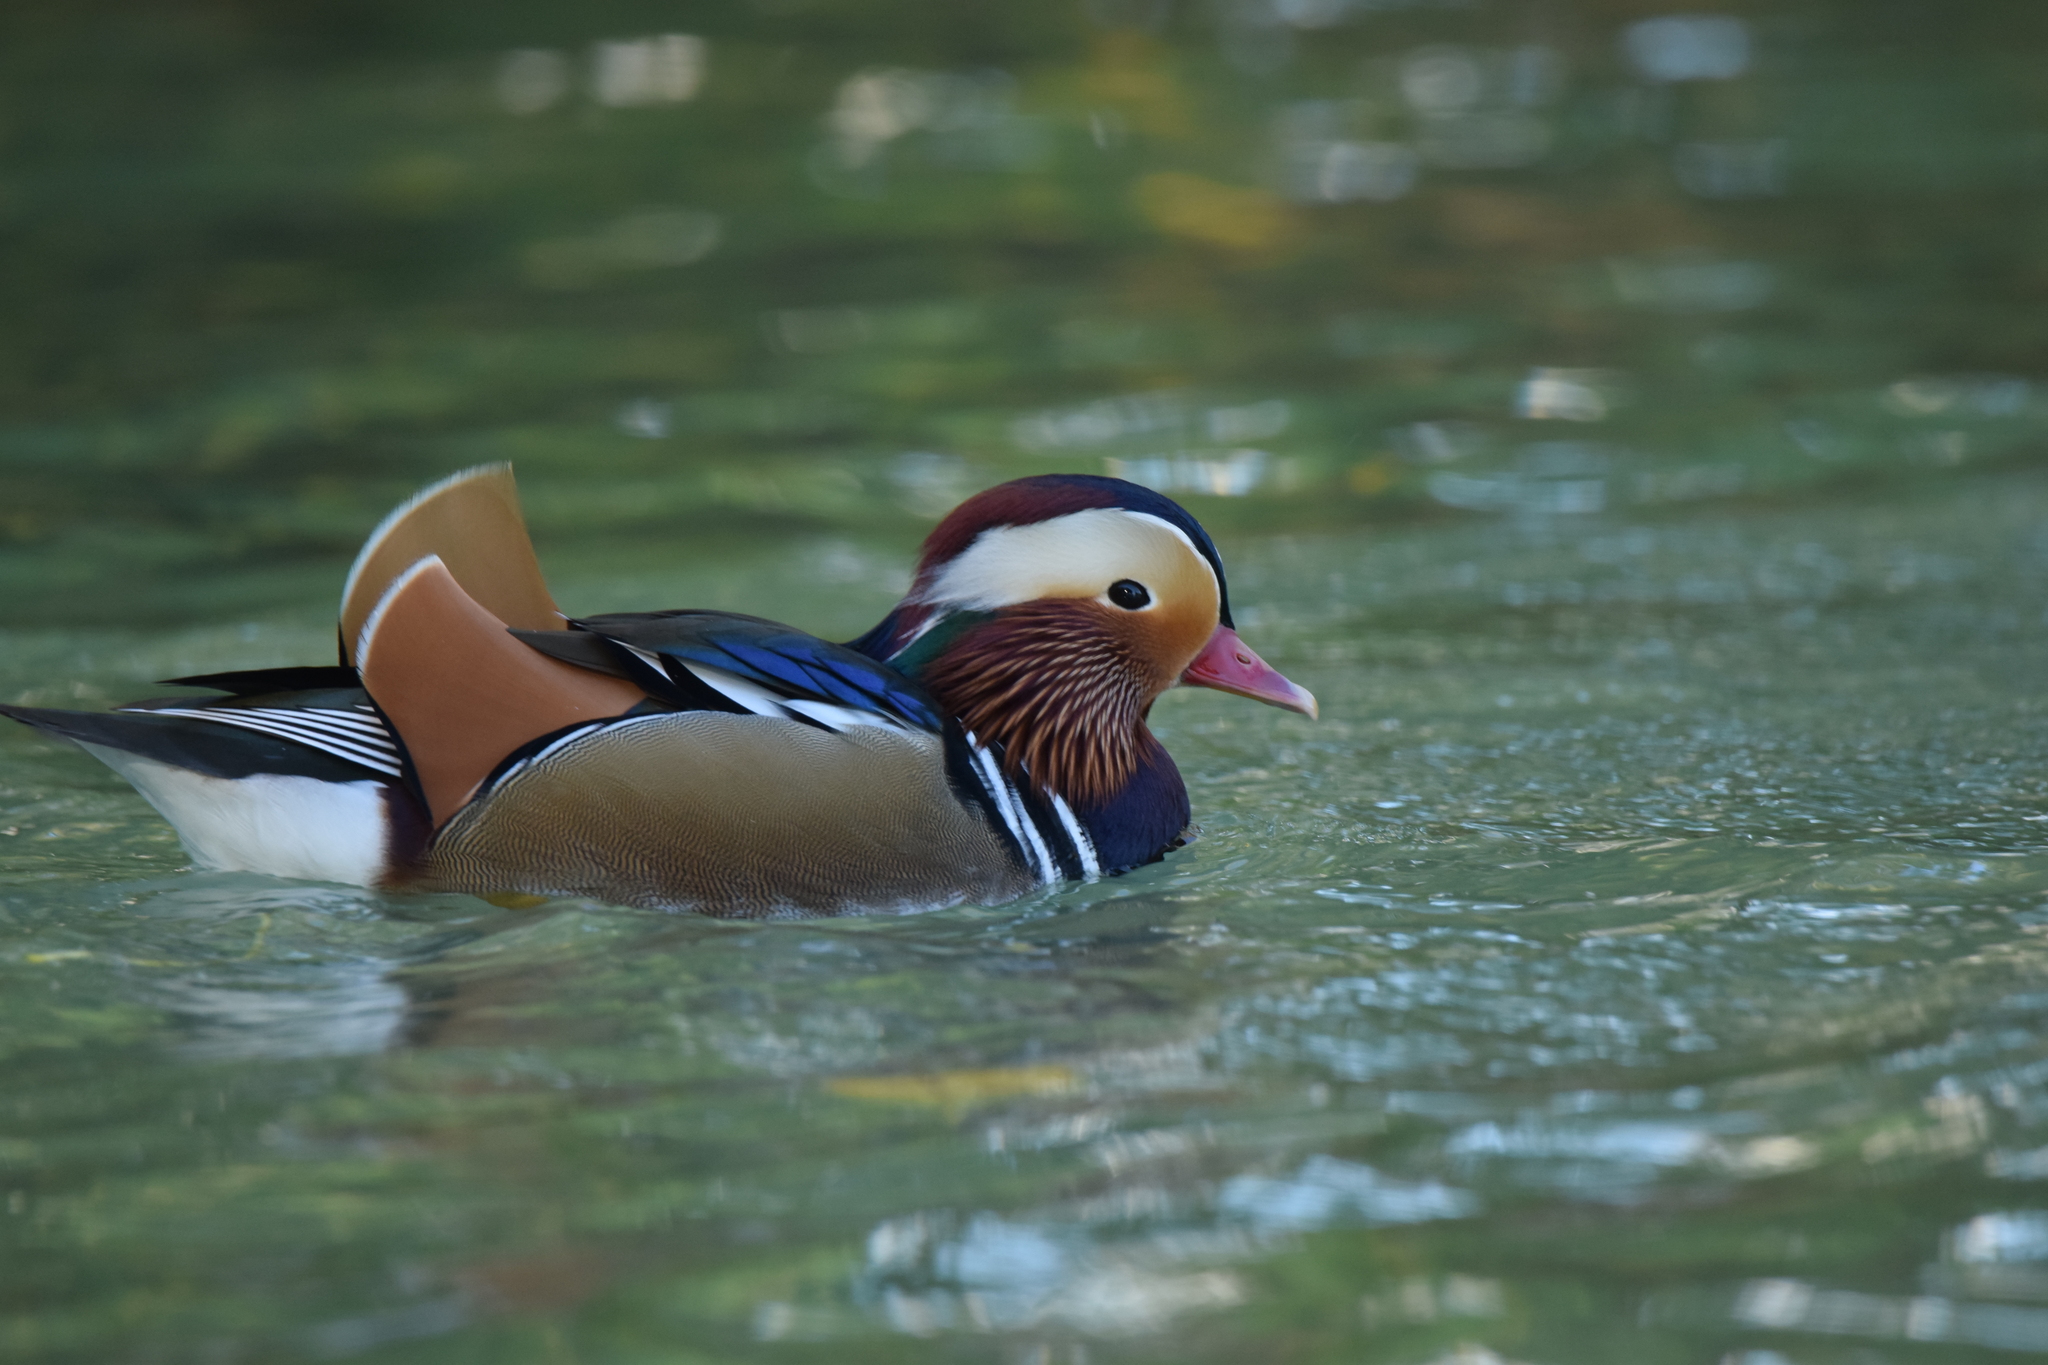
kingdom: Animalia
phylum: Chordata
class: Aves
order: Anseriformes
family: Anatidae
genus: Aix
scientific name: Aix galericulata
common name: Mandarin duck
